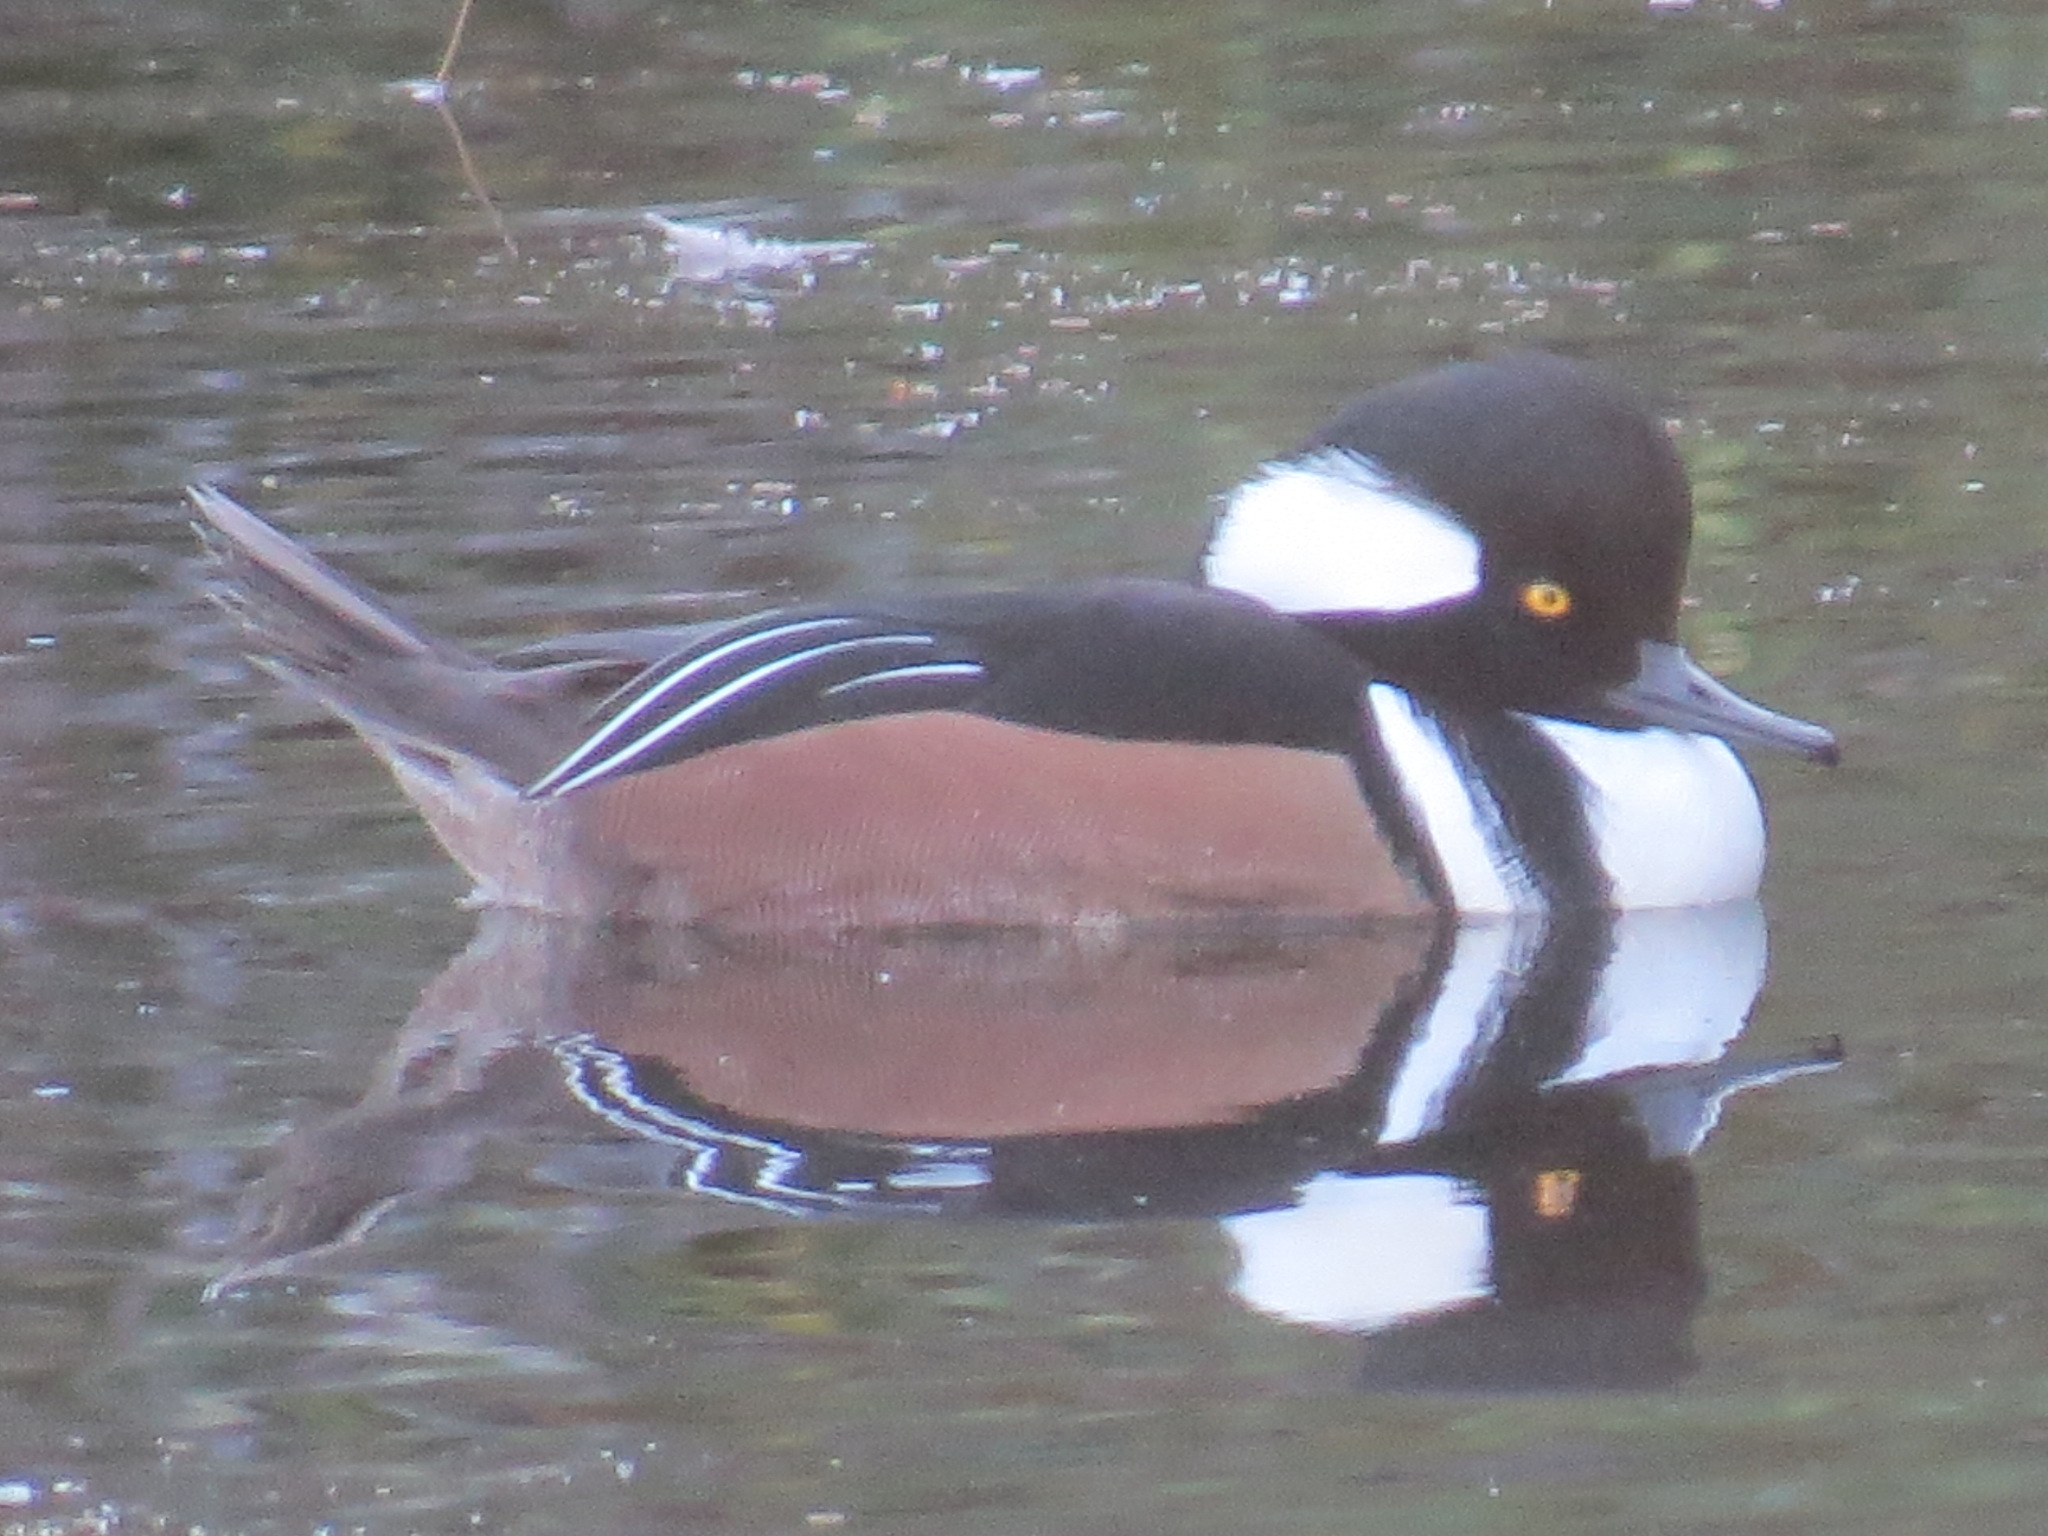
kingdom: Animalia
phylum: Chordata
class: Aves
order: Anseriformes
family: Anatidae
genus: Lophodytes
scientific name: Lophodytes cucullatus
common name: Hooded merganser
